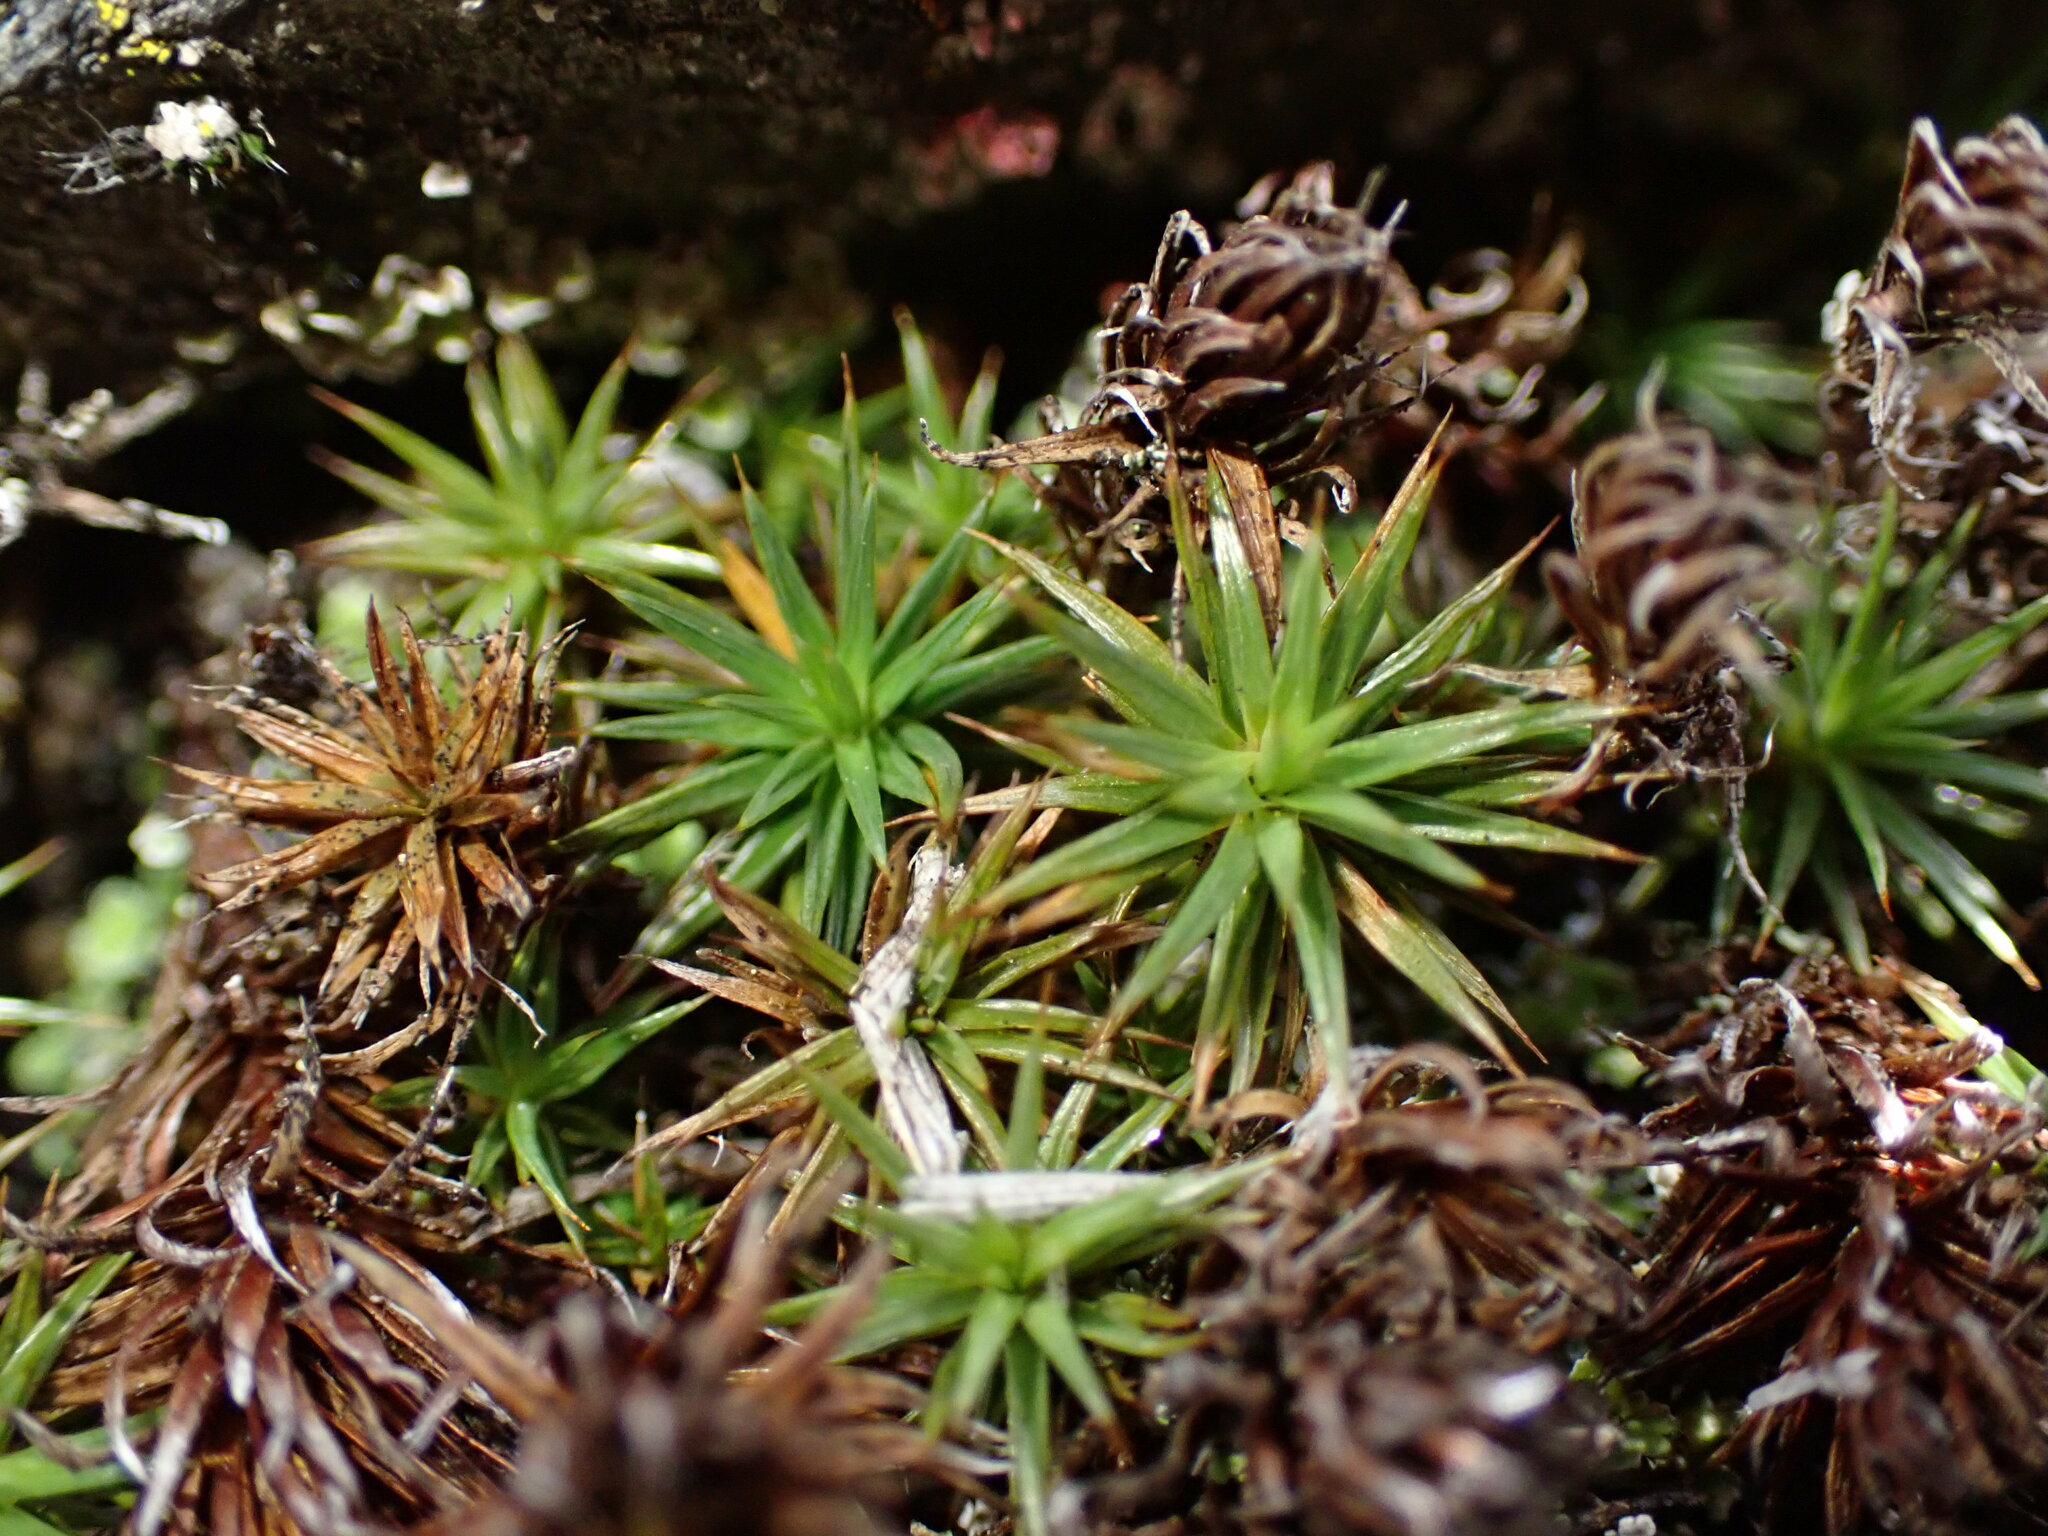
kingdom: Plantae
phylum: Bryophyta
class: Polytrichopsida
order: Polytrichales
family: Polytrichaceae
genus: Polytrichum
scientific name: Polytrichum juniperinum
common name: Juniper haircap moss
